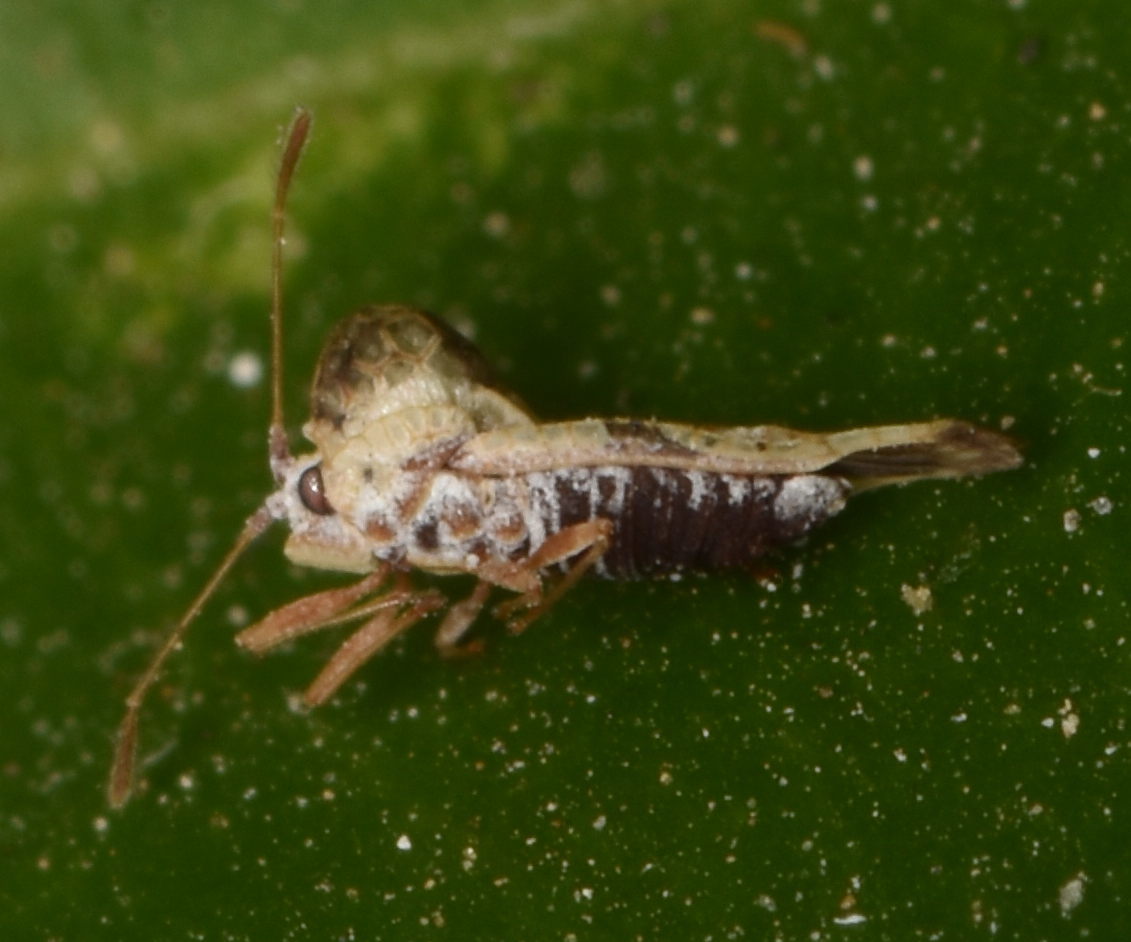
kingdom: Animalia
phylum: Arthropoda
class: Insecta
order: Hemiptera
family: Tingidae
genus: Corythauma
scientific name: Corythauma ayyari
